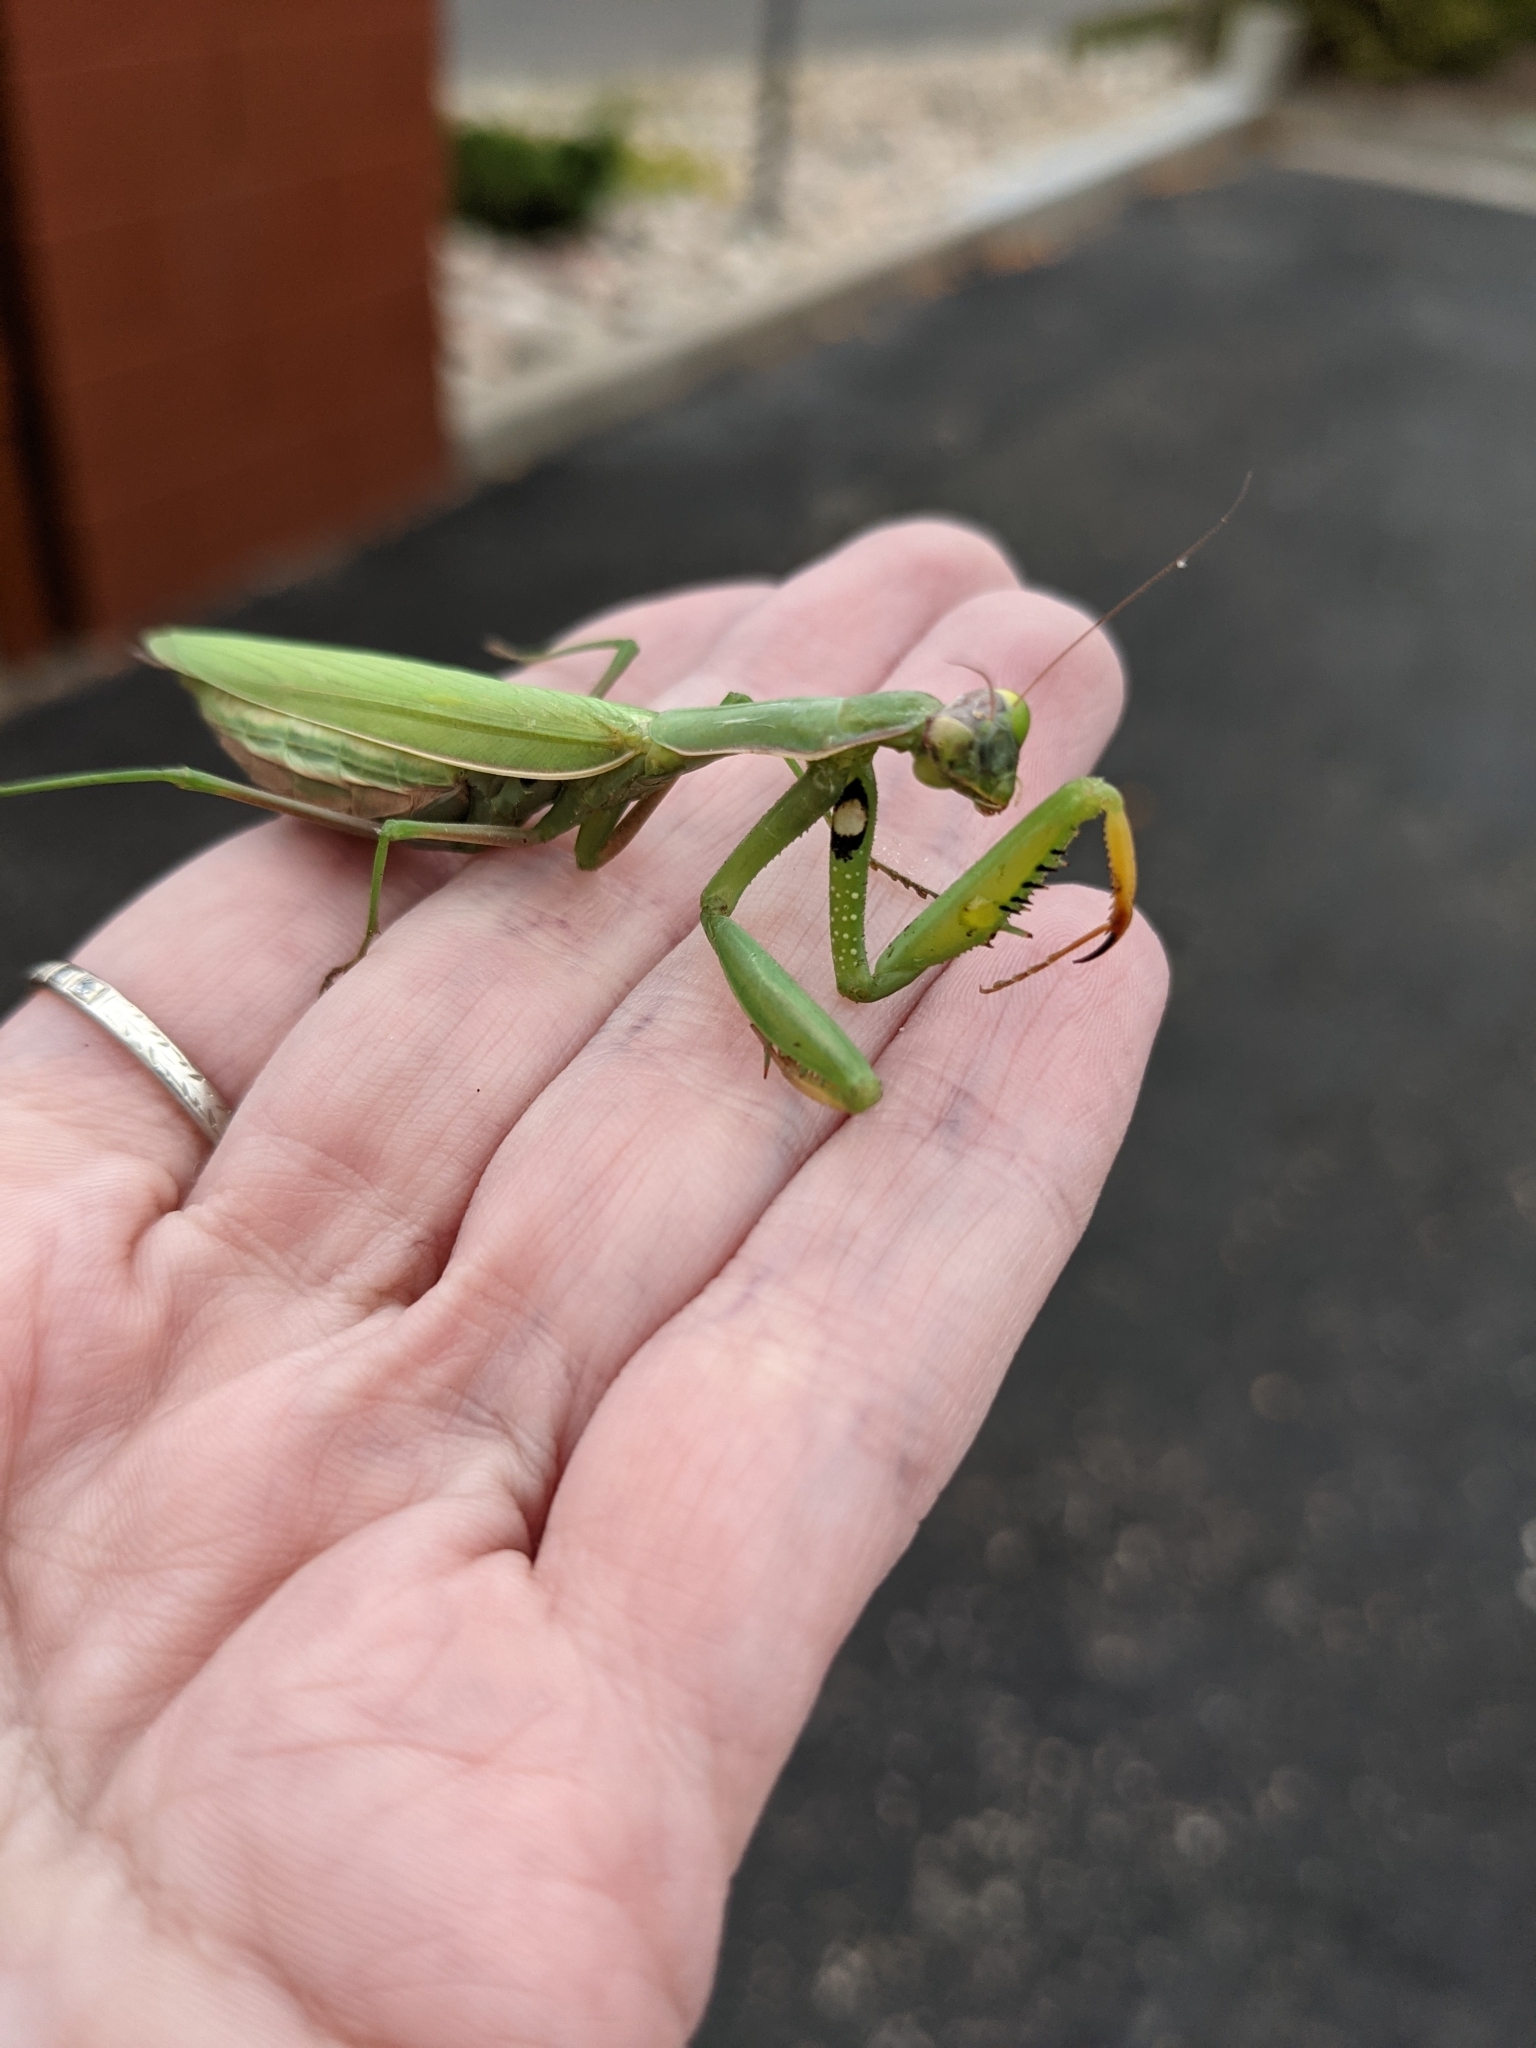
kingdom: Animalia
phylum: Arthropoda
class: Insecta
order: Mantodea
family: Mantidae
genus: Mantis
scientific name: Mantis religiosa
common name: Praying mantis
